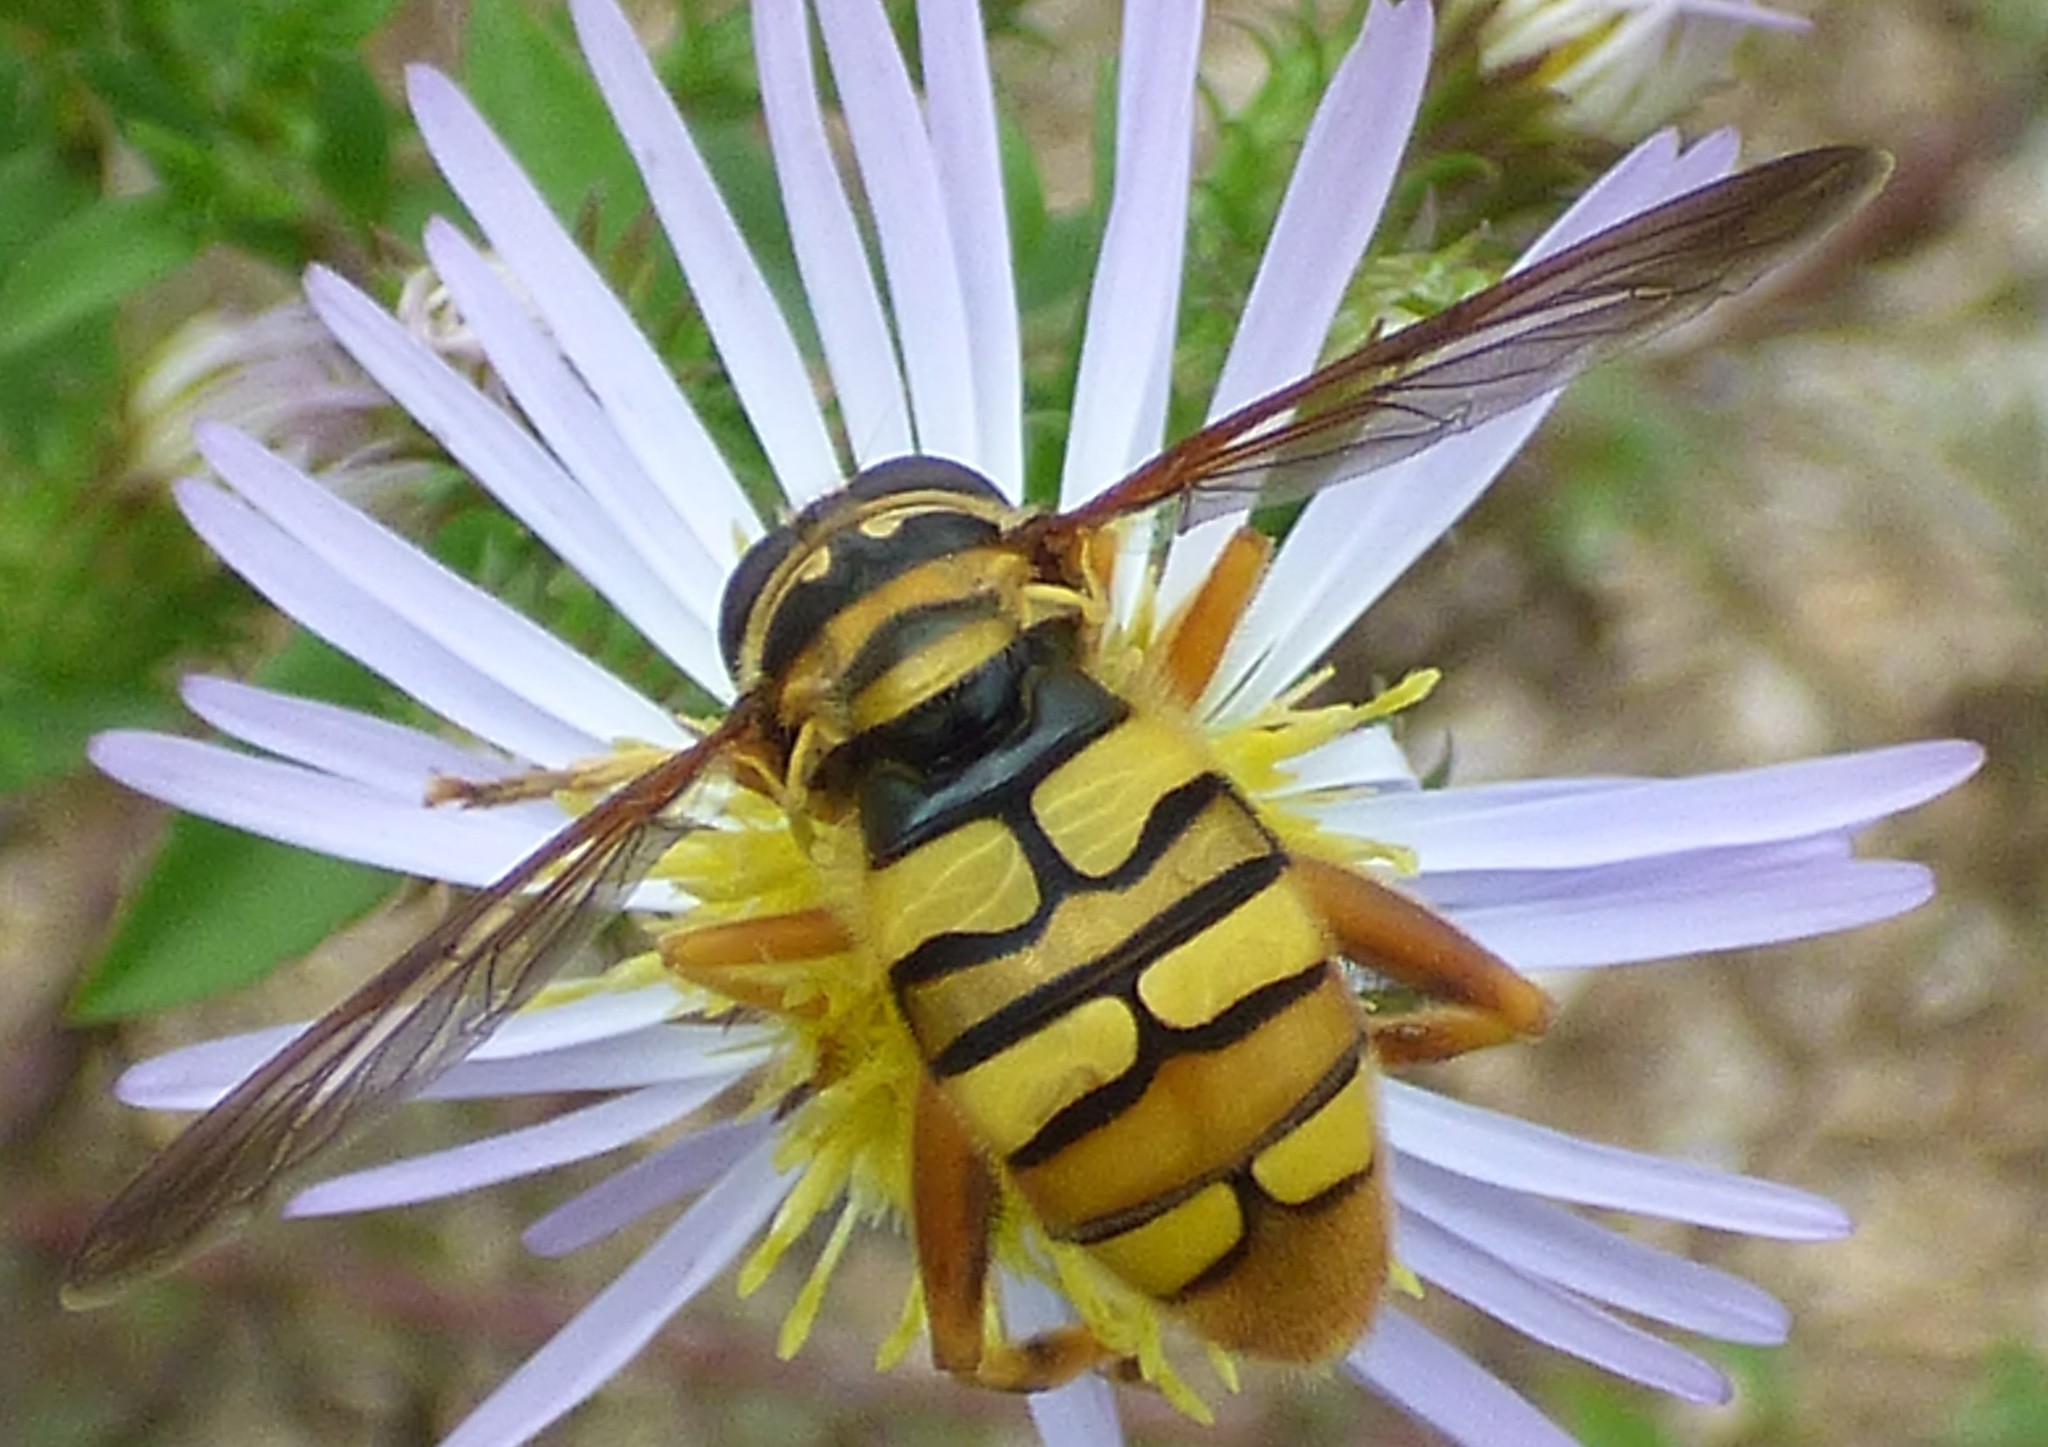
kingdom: Animalia
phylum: Arthropoda
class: Insecta
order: Diptera
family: Syrphidae
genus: Milesia
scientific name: Milesia virginiensis
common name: Virginia giant
